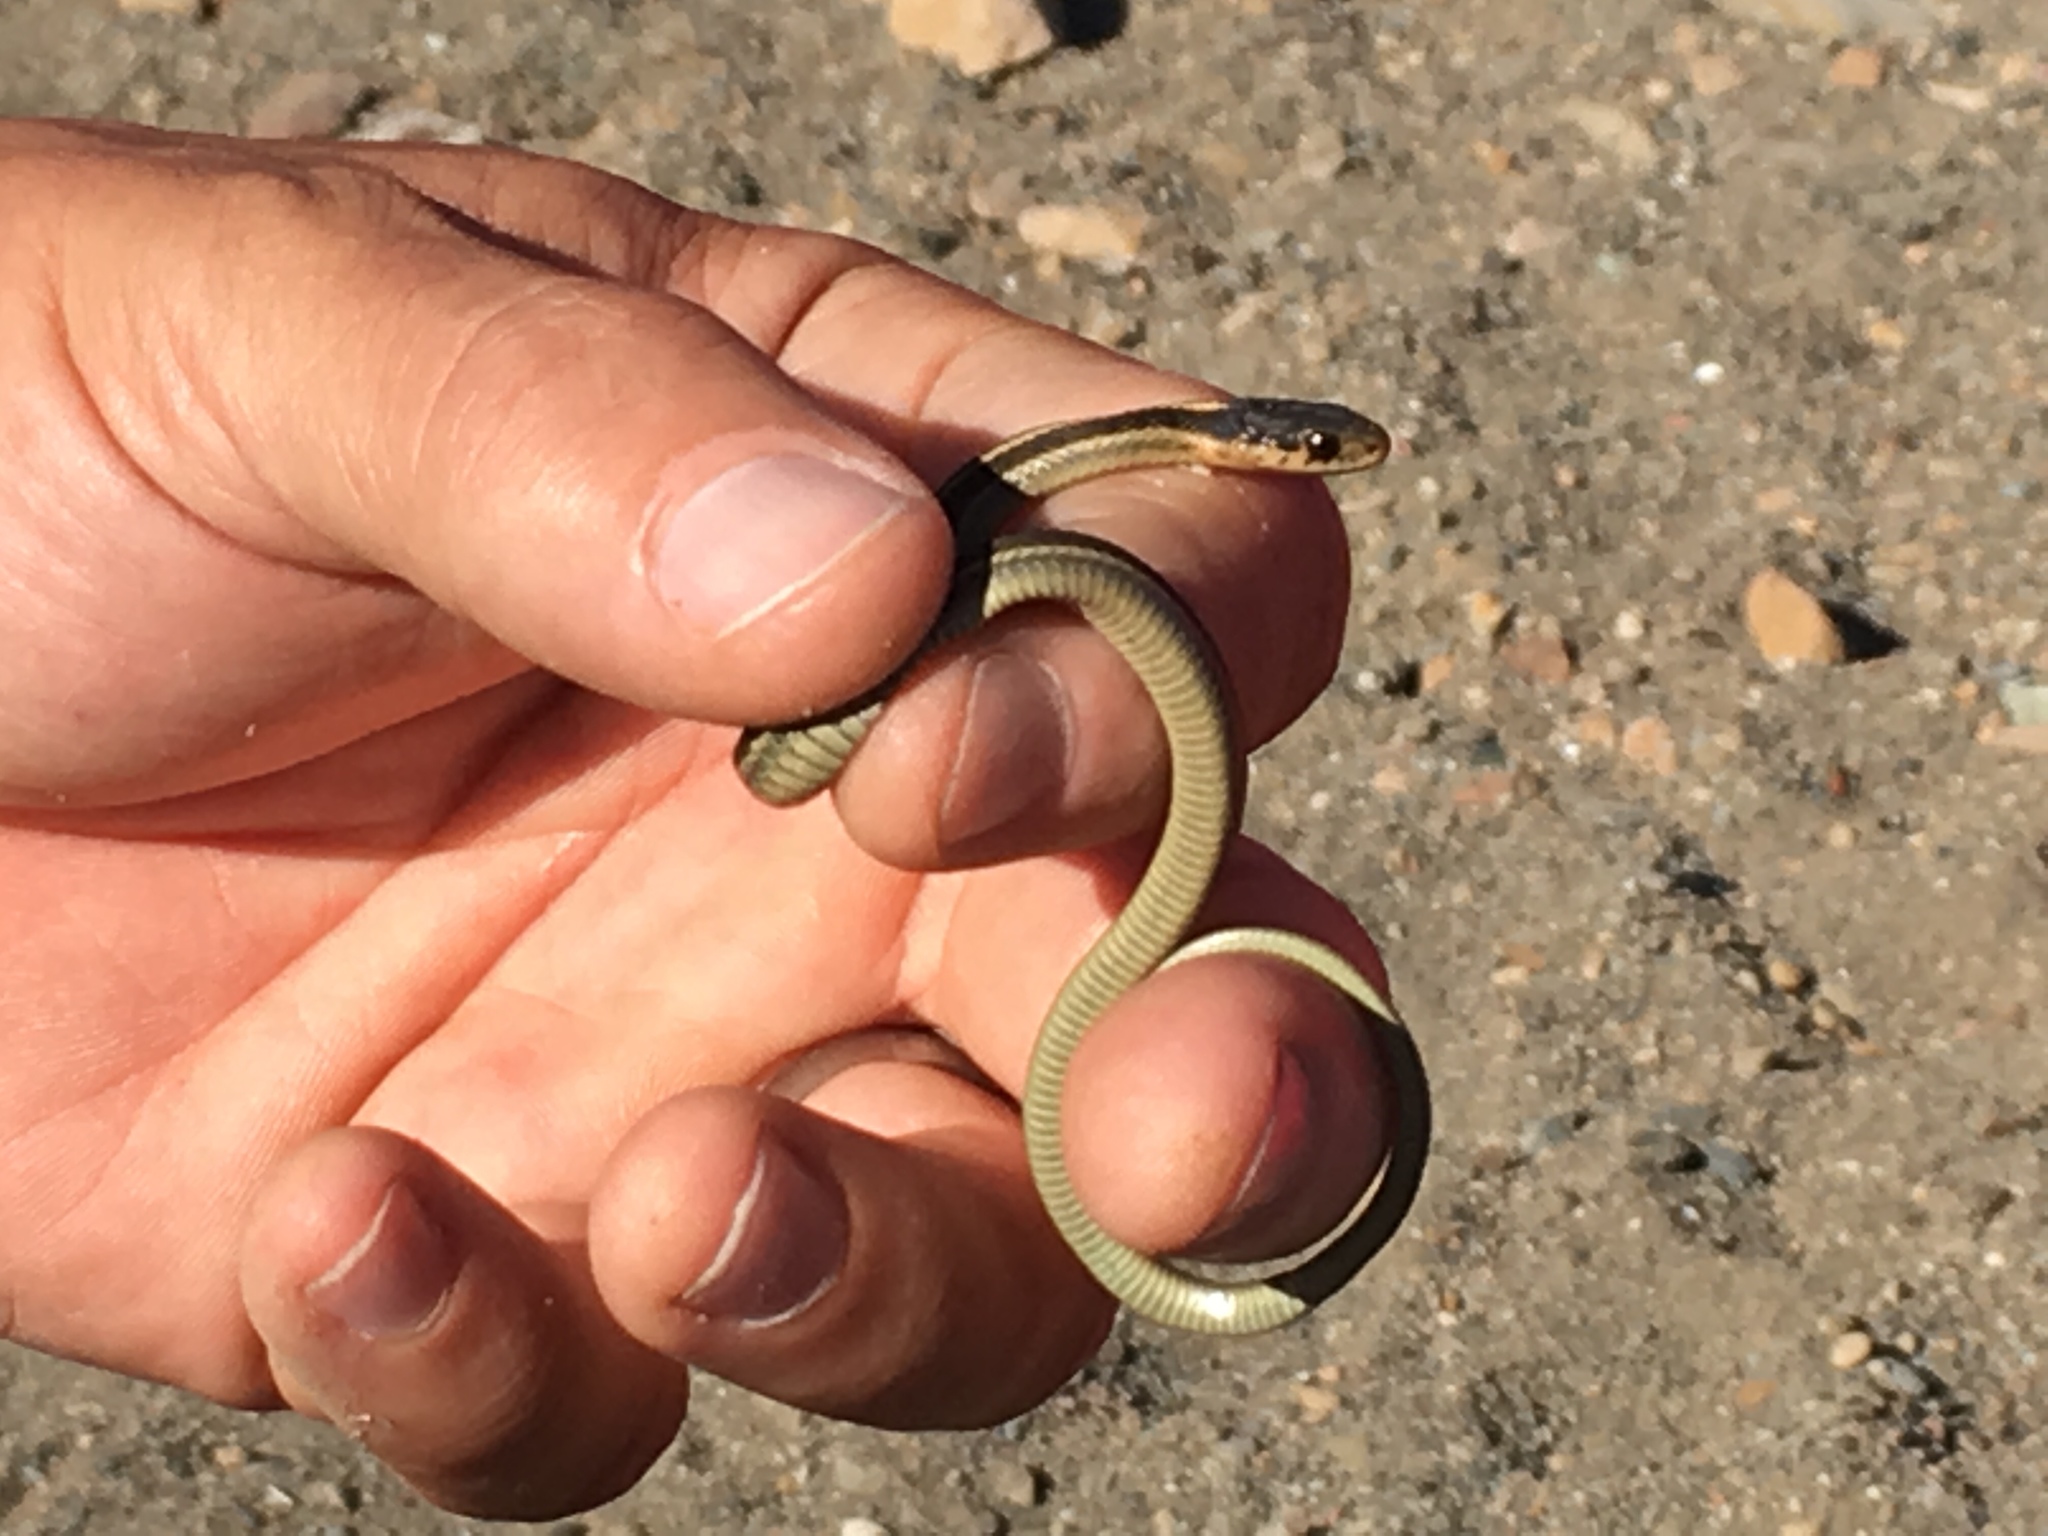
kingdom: Animalia
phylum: Chordata
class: Squamata
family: Colubridae
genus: Thamnophis
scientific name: Thamnophis atratus
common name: Pacific coast aquatic garter snake
